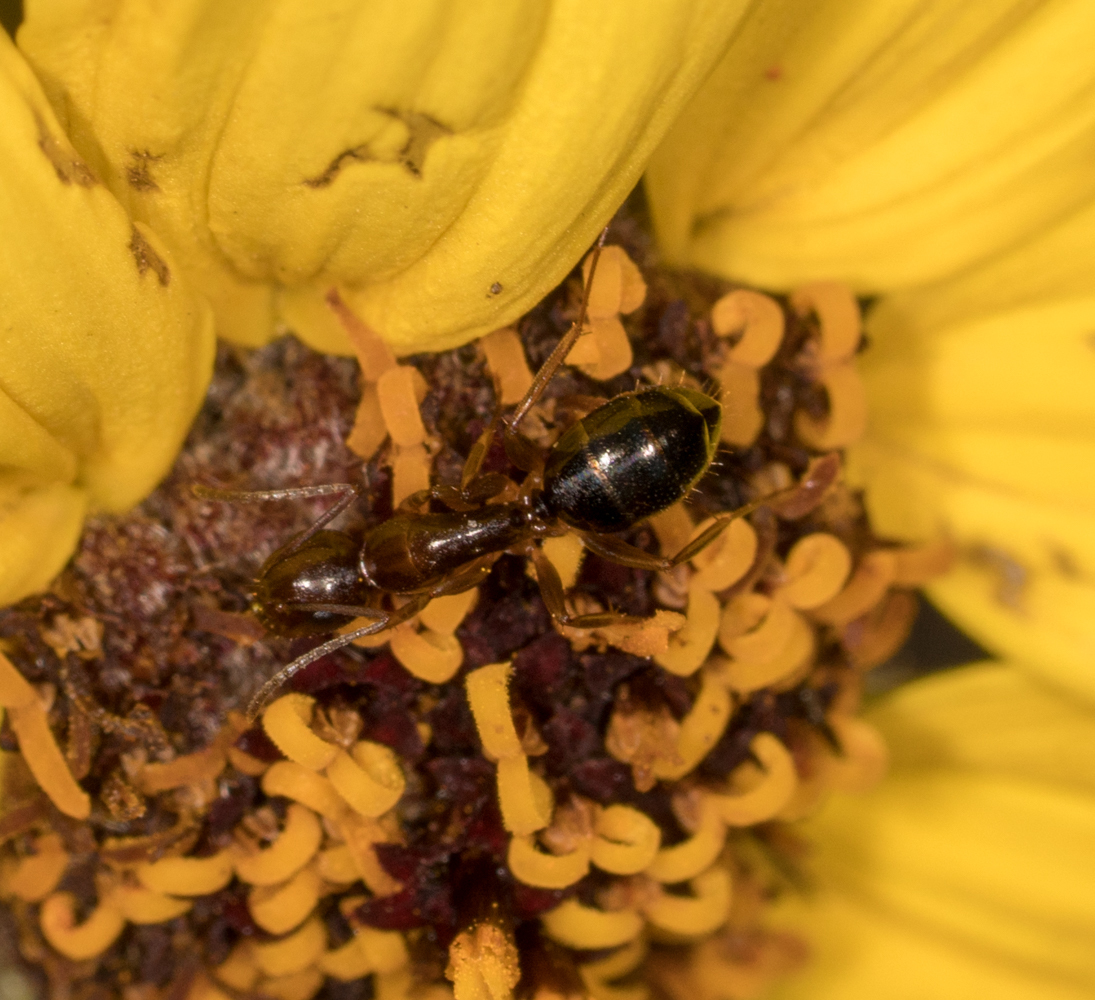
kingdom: Animalia
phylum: Arthropoda
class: Insecta
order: Hymenoptera
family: Formicidae
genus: Camponotus
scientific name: Camponotus yogi
